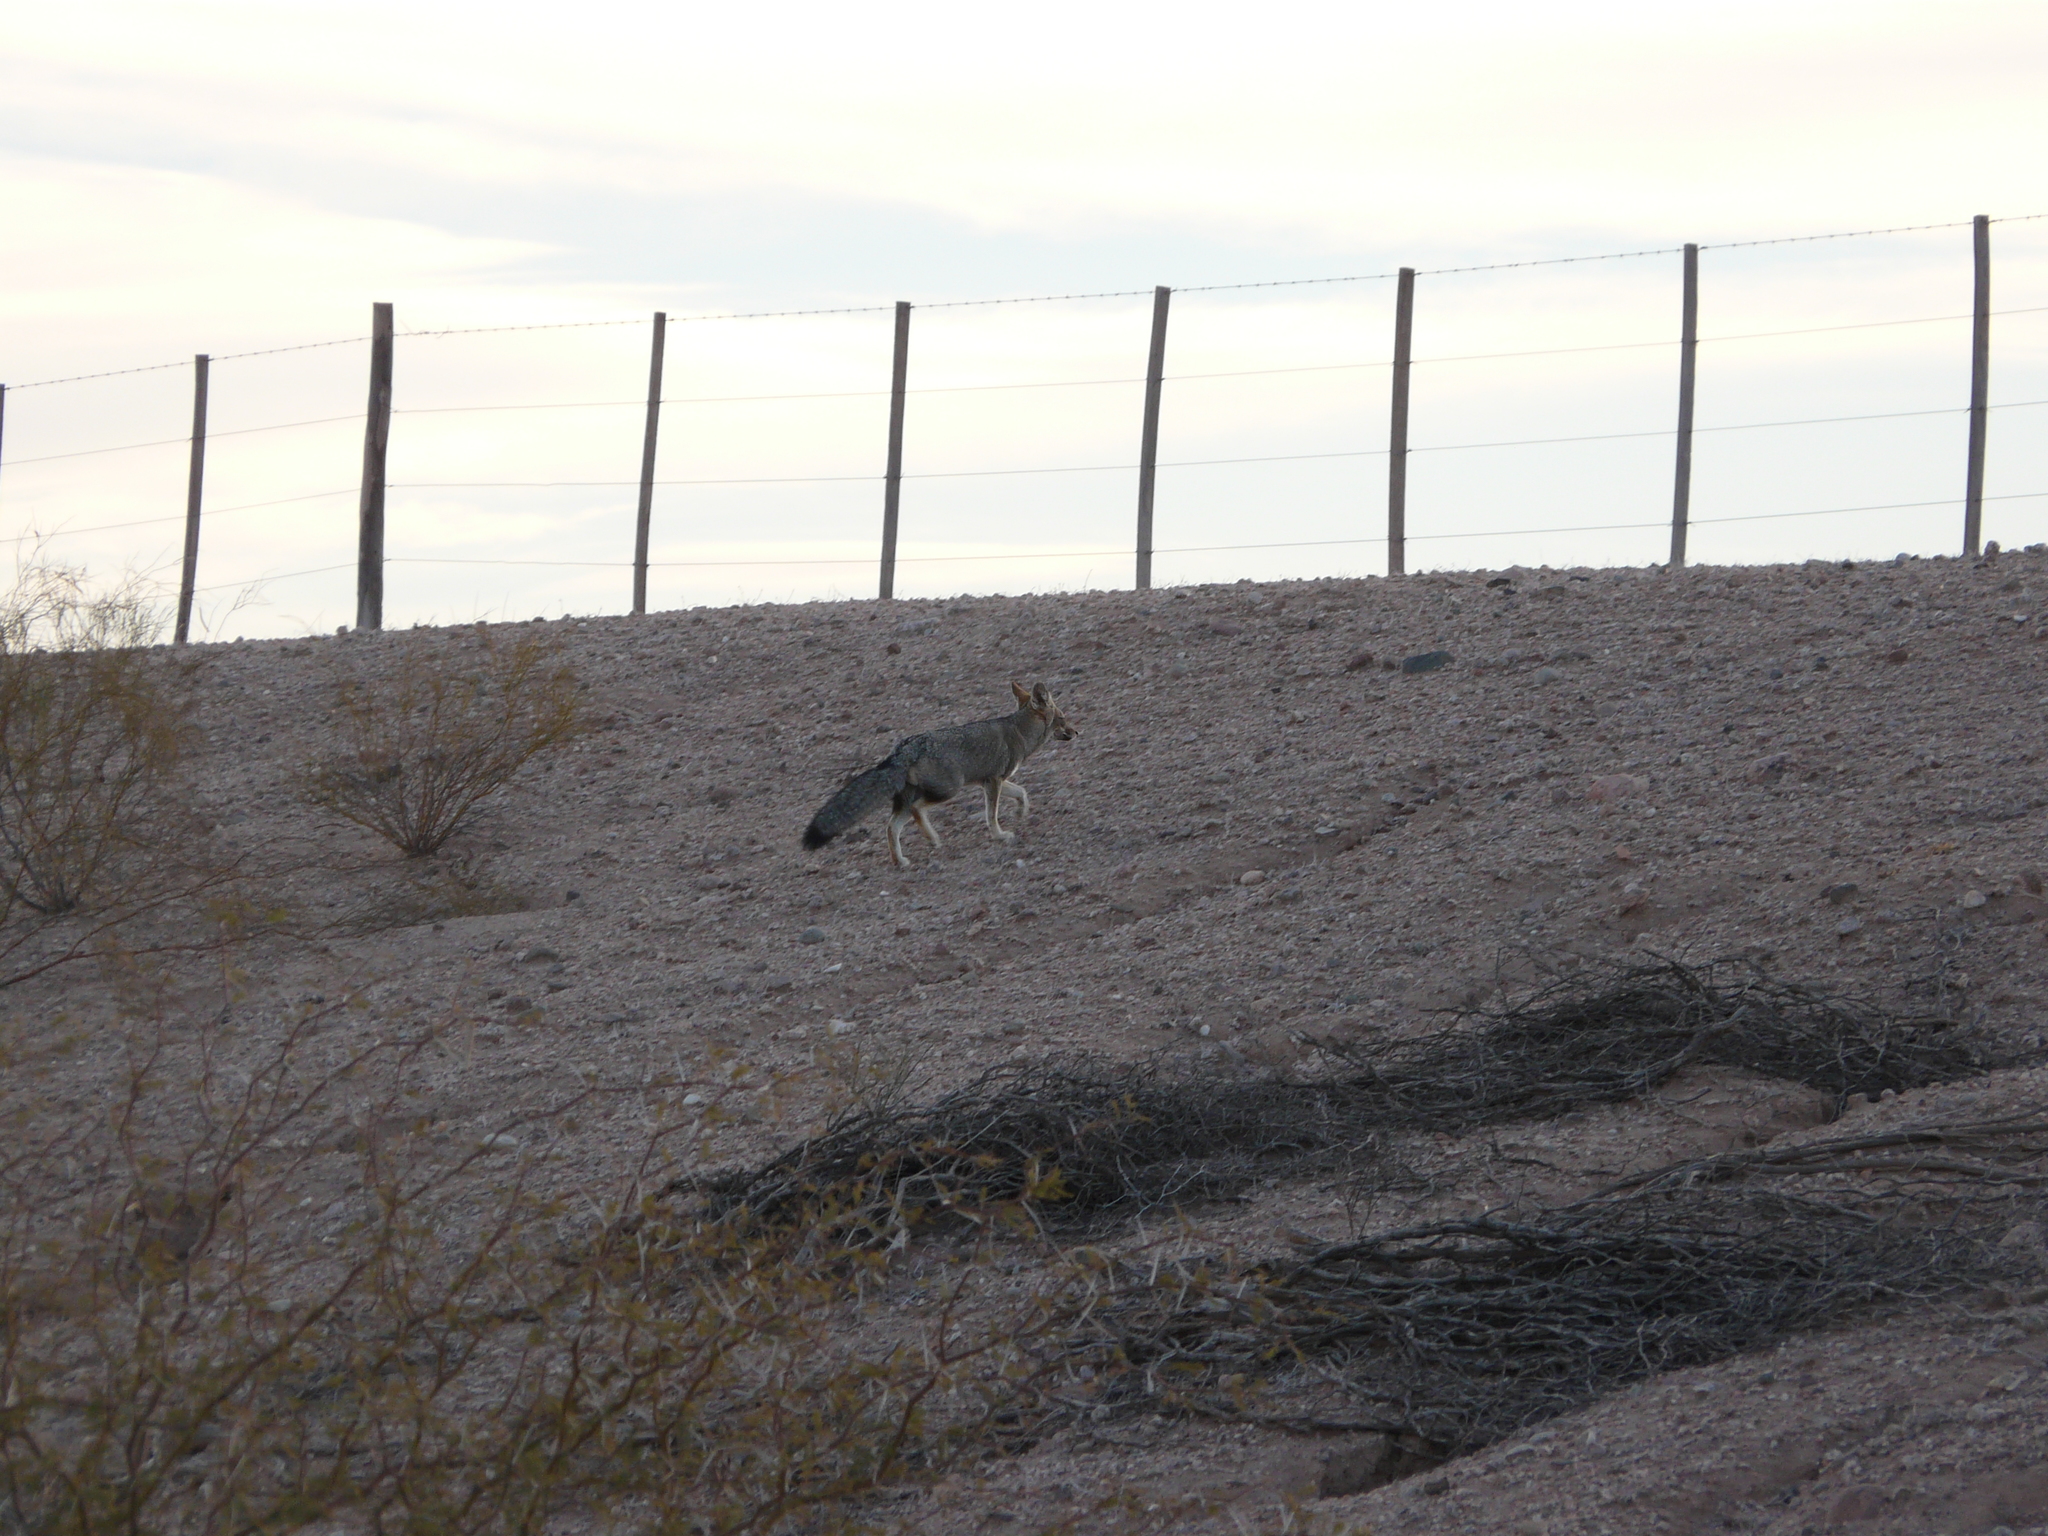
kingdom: Animalia
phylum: Chordata
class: Mammalia
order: Carnivora
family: Canidae
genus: Lycalopex
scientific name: Lycalopex gymnocercus
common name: Pampas fox
